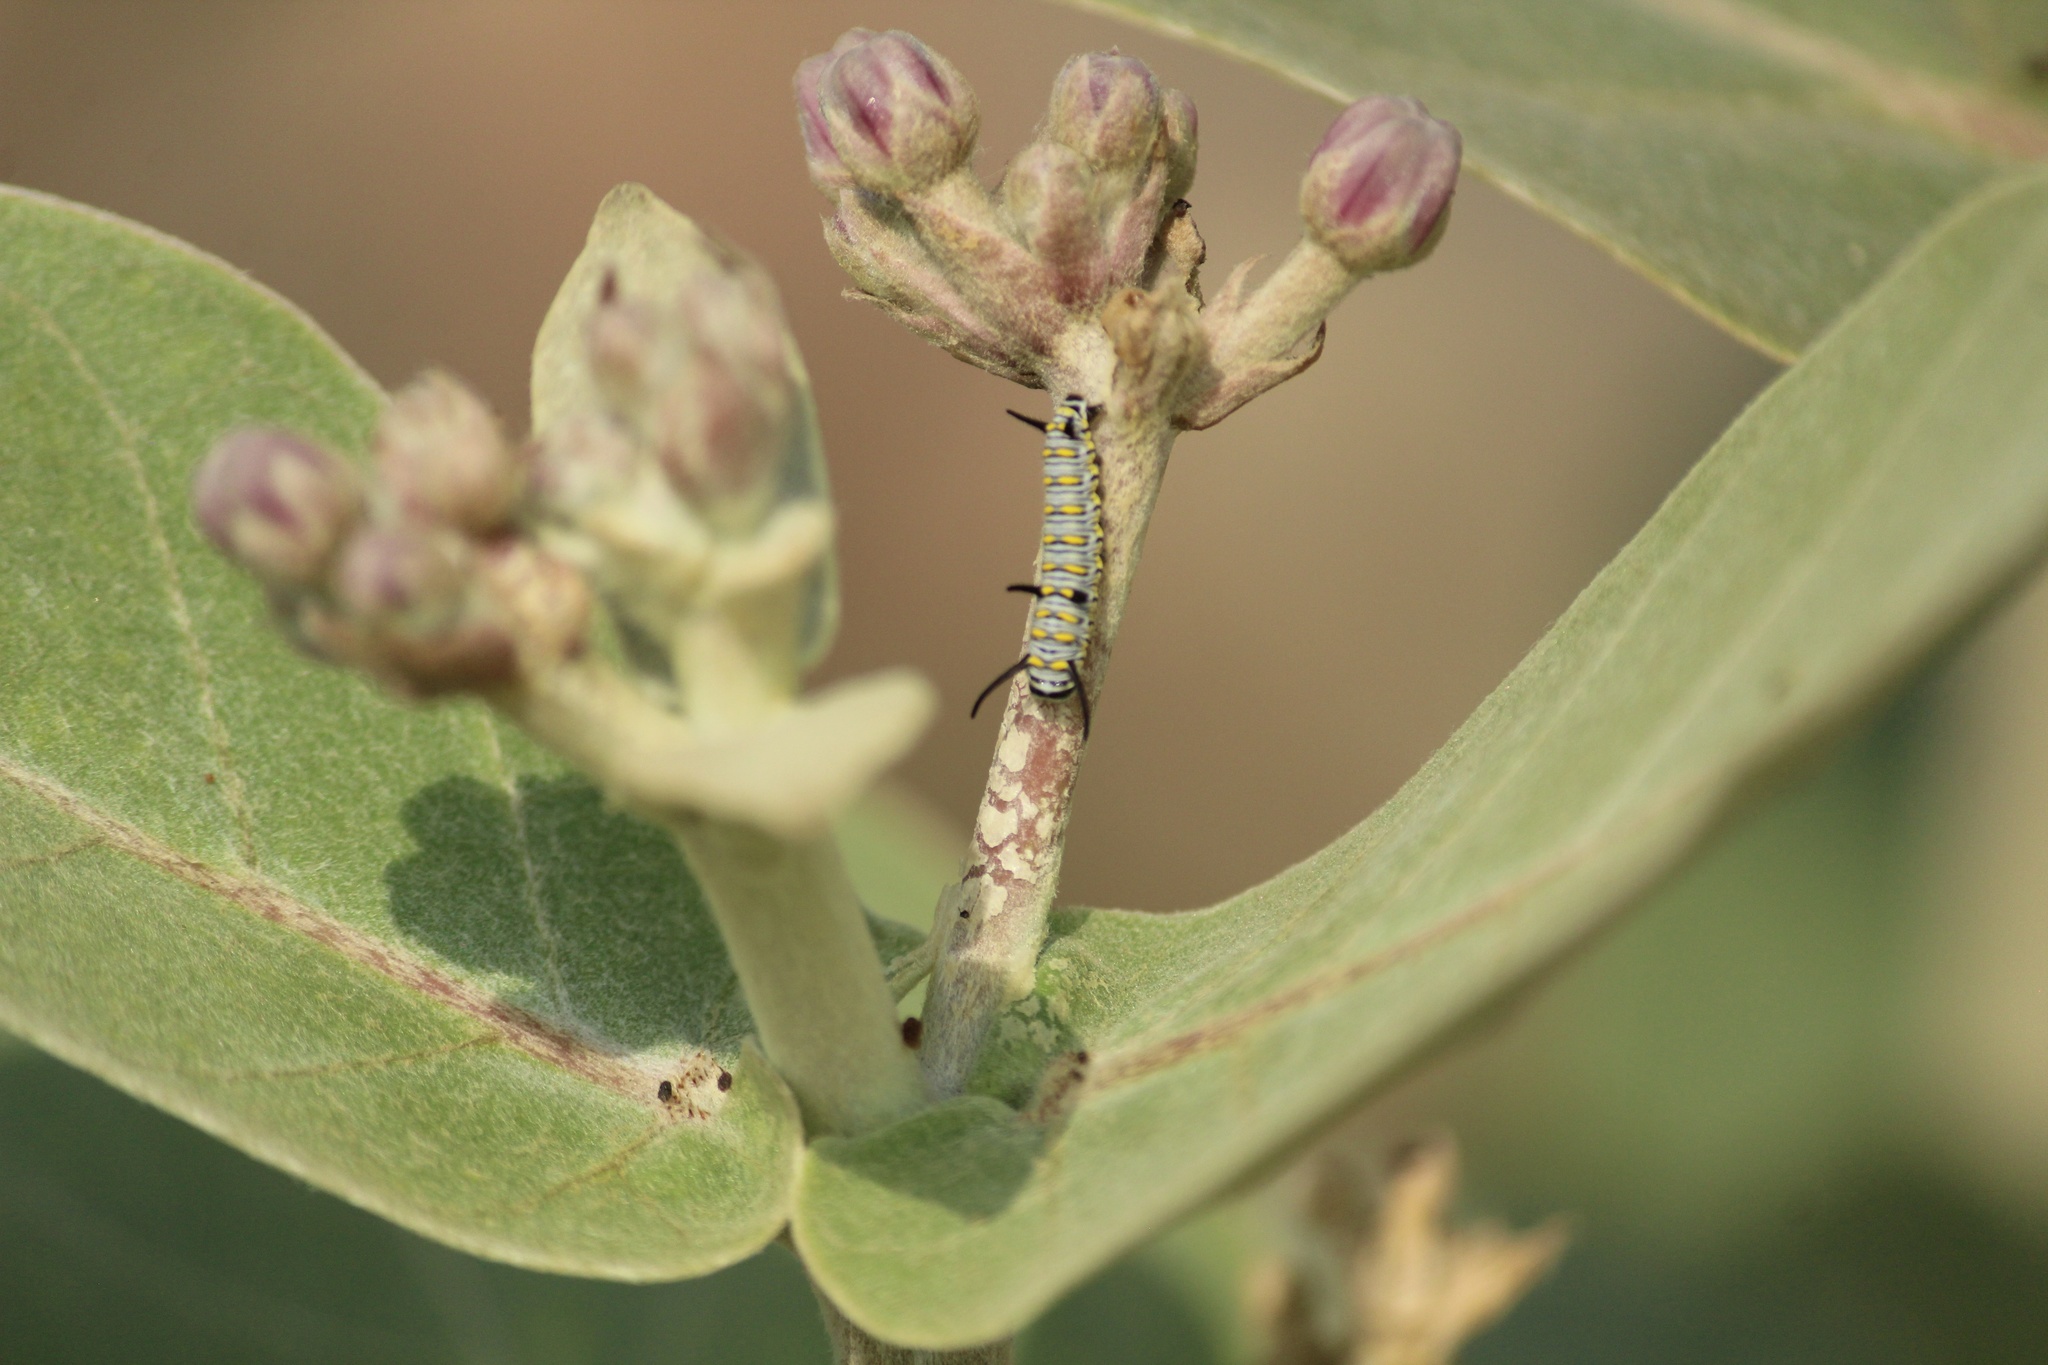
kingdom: Animalia
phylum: Arthropoda
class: Insecta
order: Lepidoptera
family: Nymphalidae
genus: Danaus
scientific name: Danaus chrysippus
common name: Plain tiger
